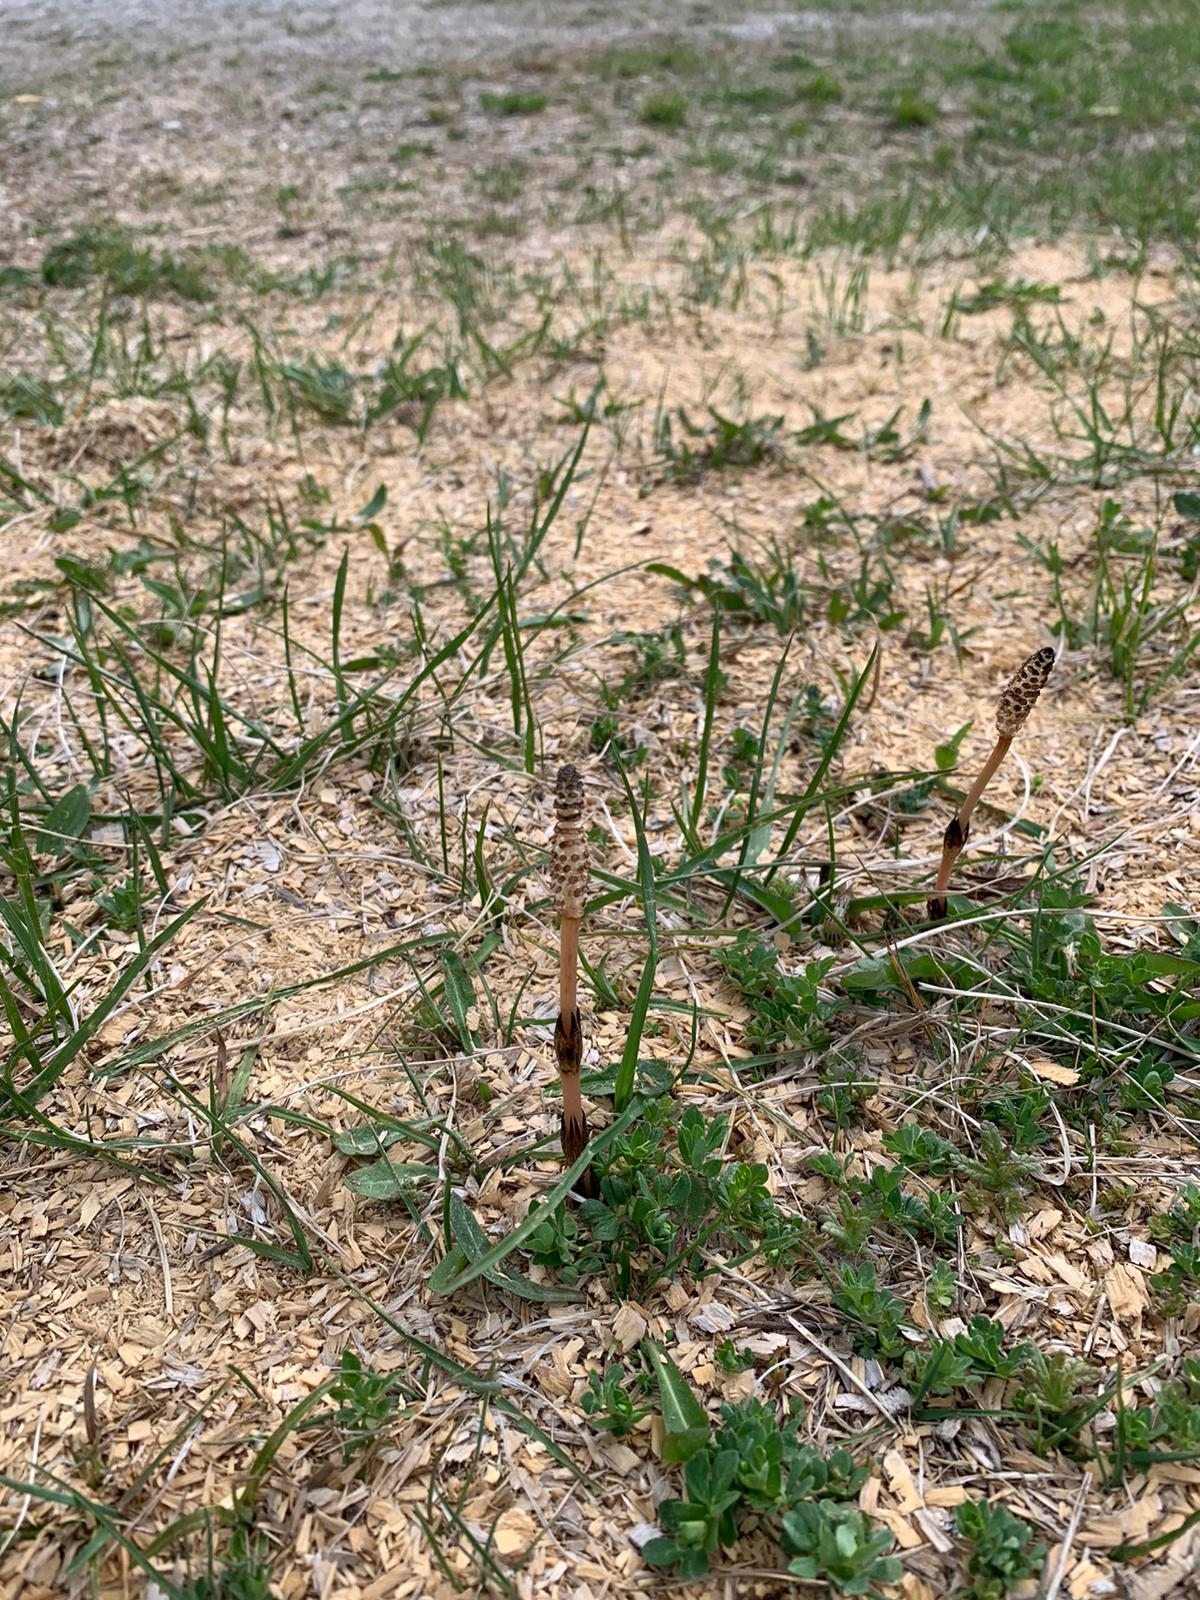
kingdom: Plantae
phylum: Tracheophyta
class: Polypodiopsida
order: Equisetales
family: Equisetaceae
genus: Equisetum
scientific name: Equisetum arvense
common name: Field horsetail
